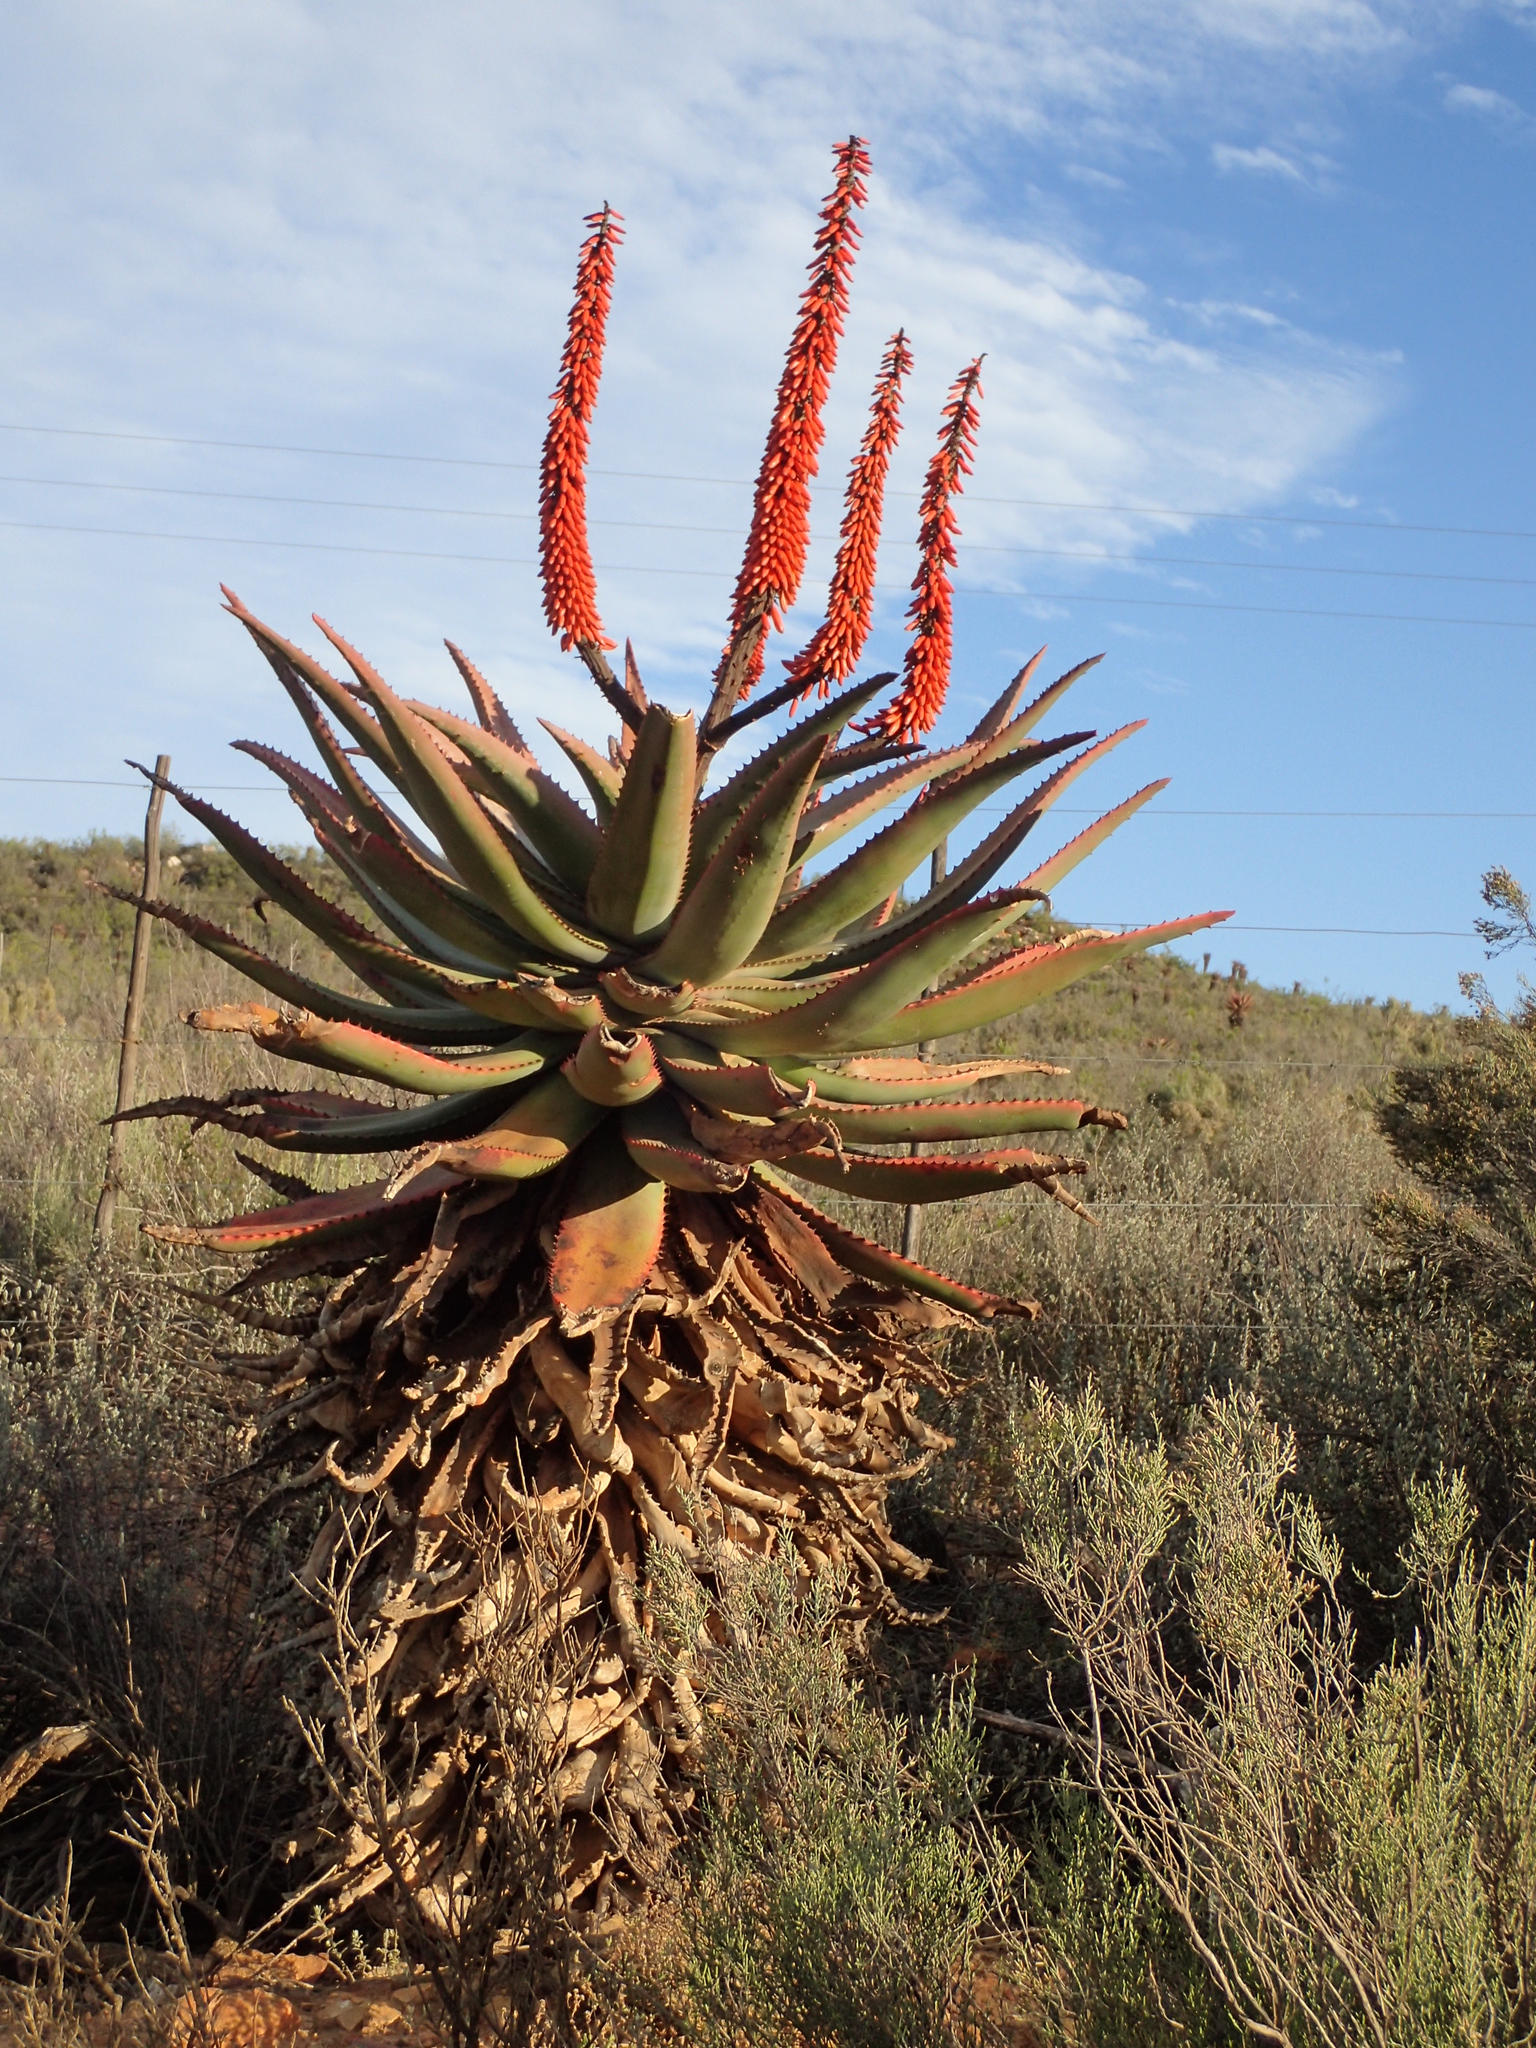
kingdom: Plantae
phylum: Tracheophyta
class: Liliopsida
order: Asparagales
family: Asphodelaceae
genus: Aloe
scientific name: Aloe ferox
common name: Bitter aloe
